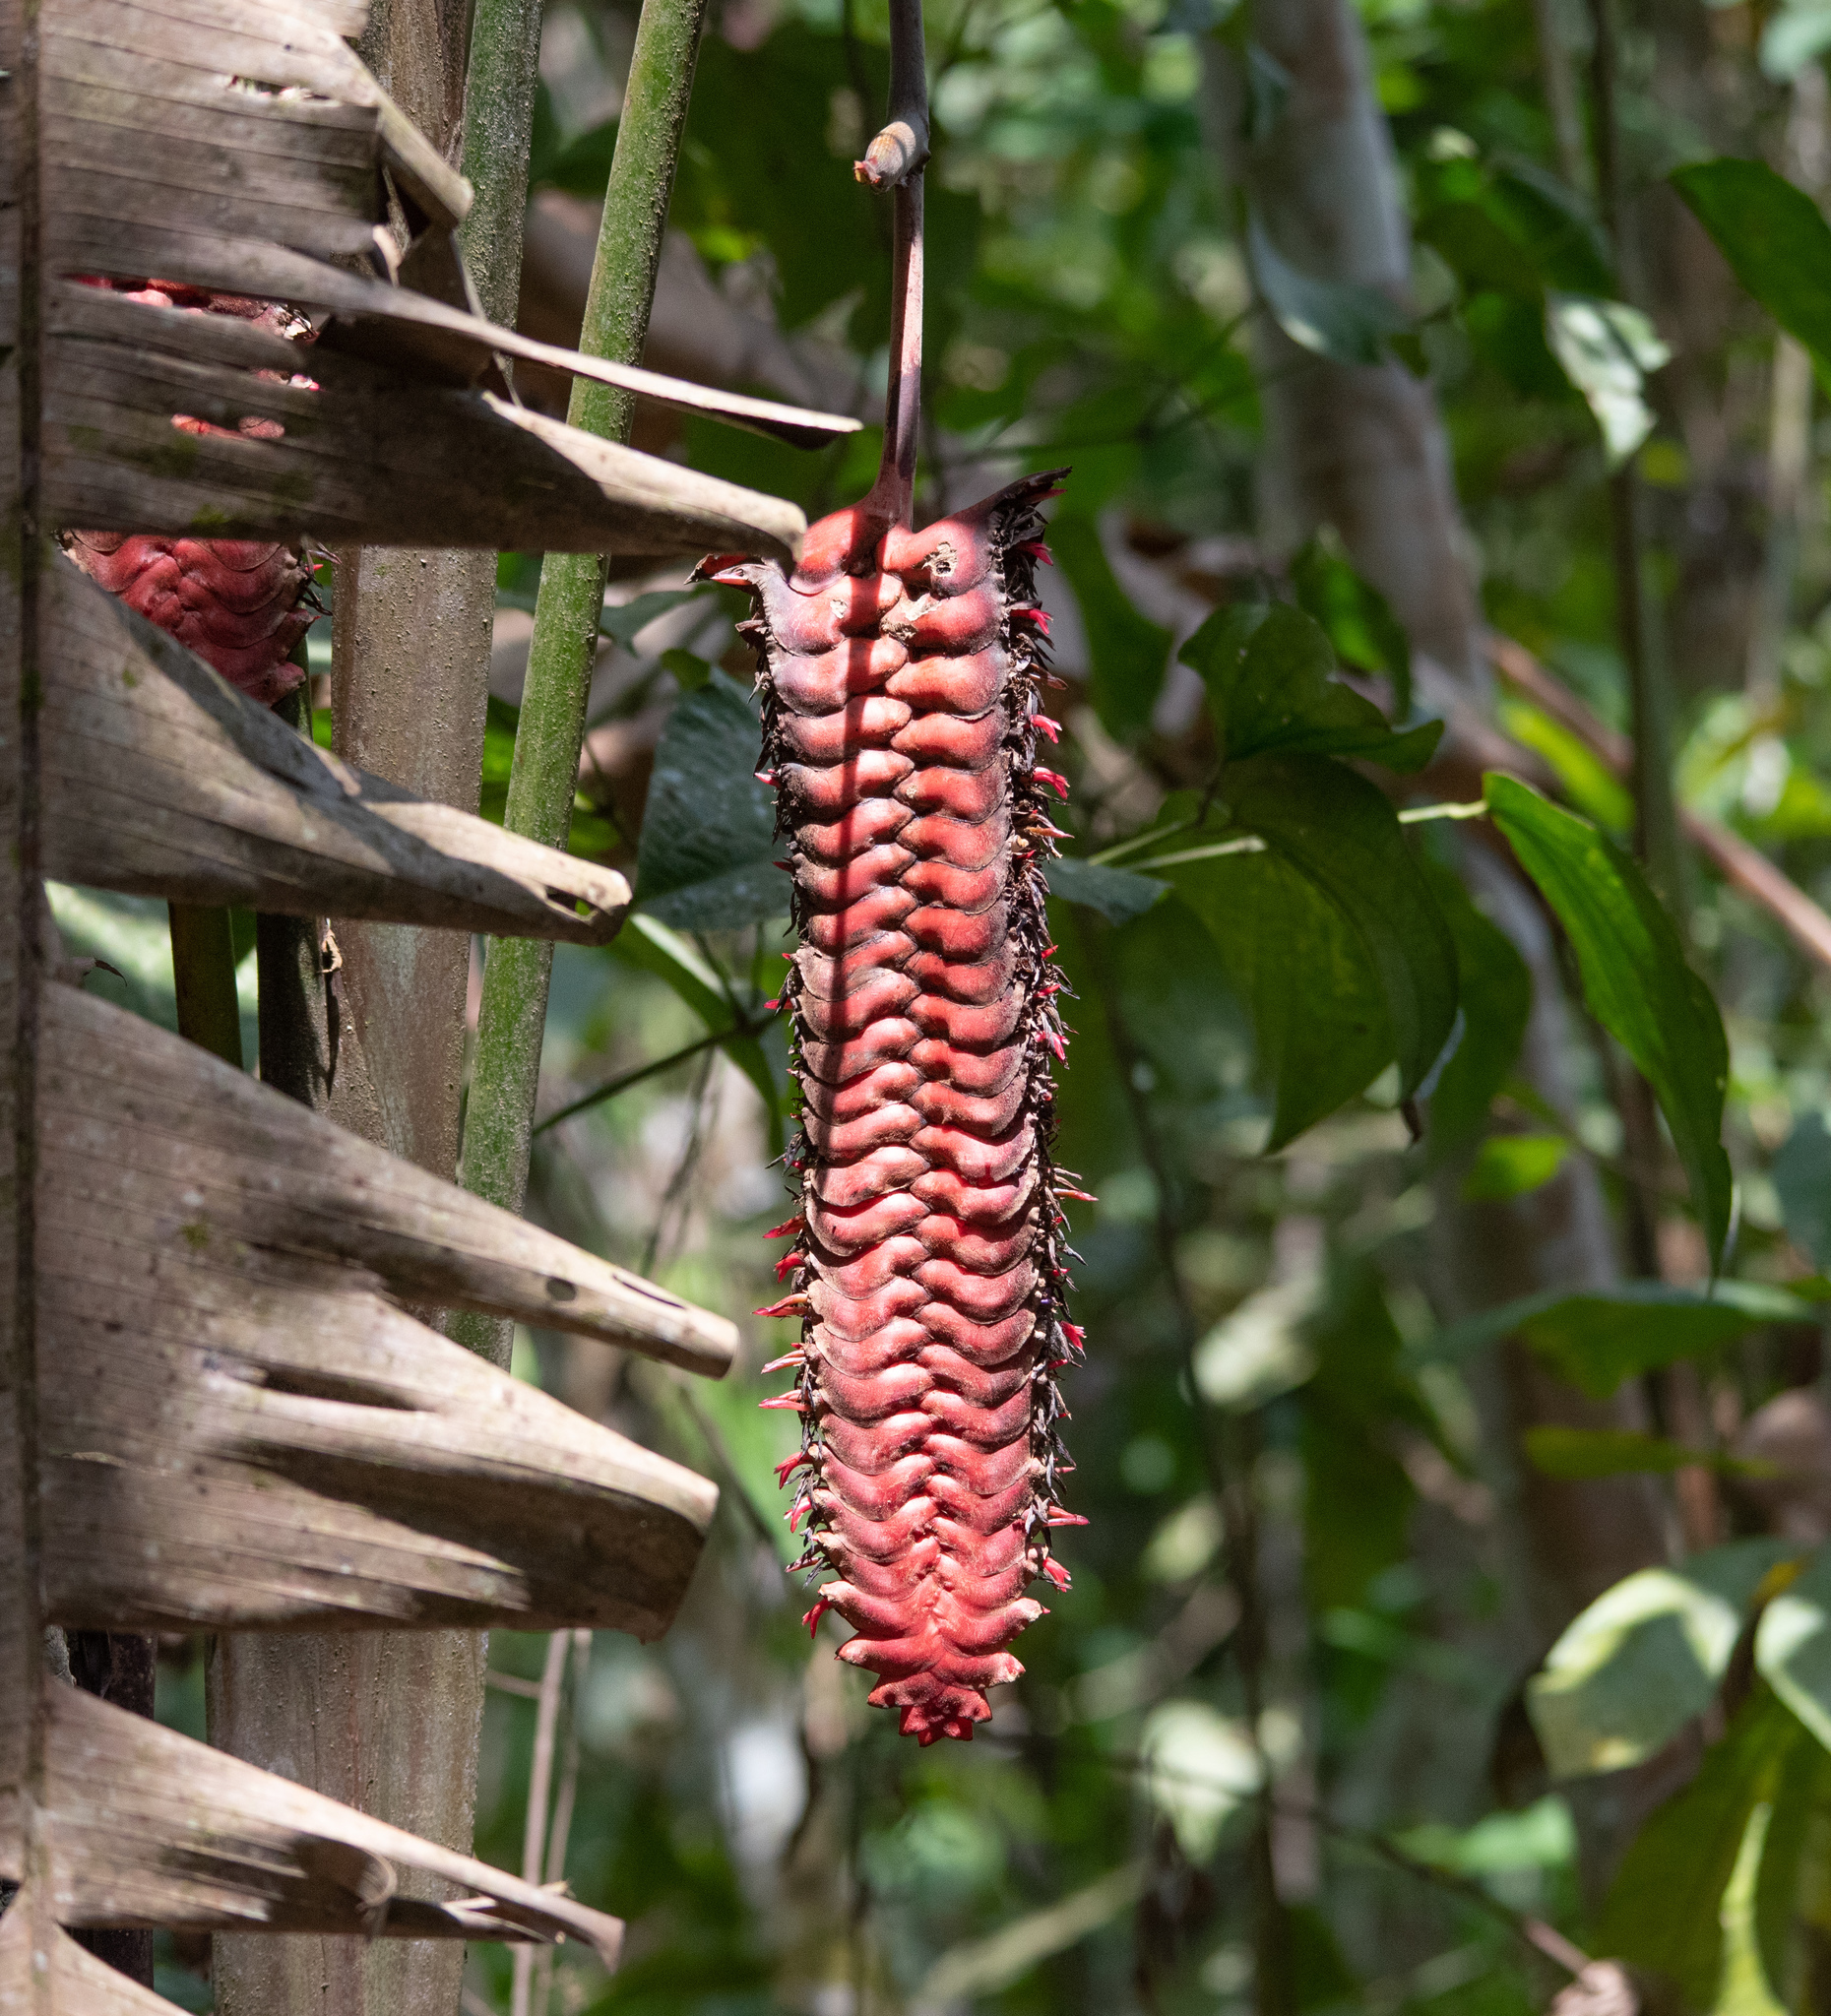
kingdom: Plantae
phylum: Tracheophyta
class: Liliopsida
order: Zingiberales
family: Heliconiaceae
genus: Heliconia
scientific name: Heliconia mariae
